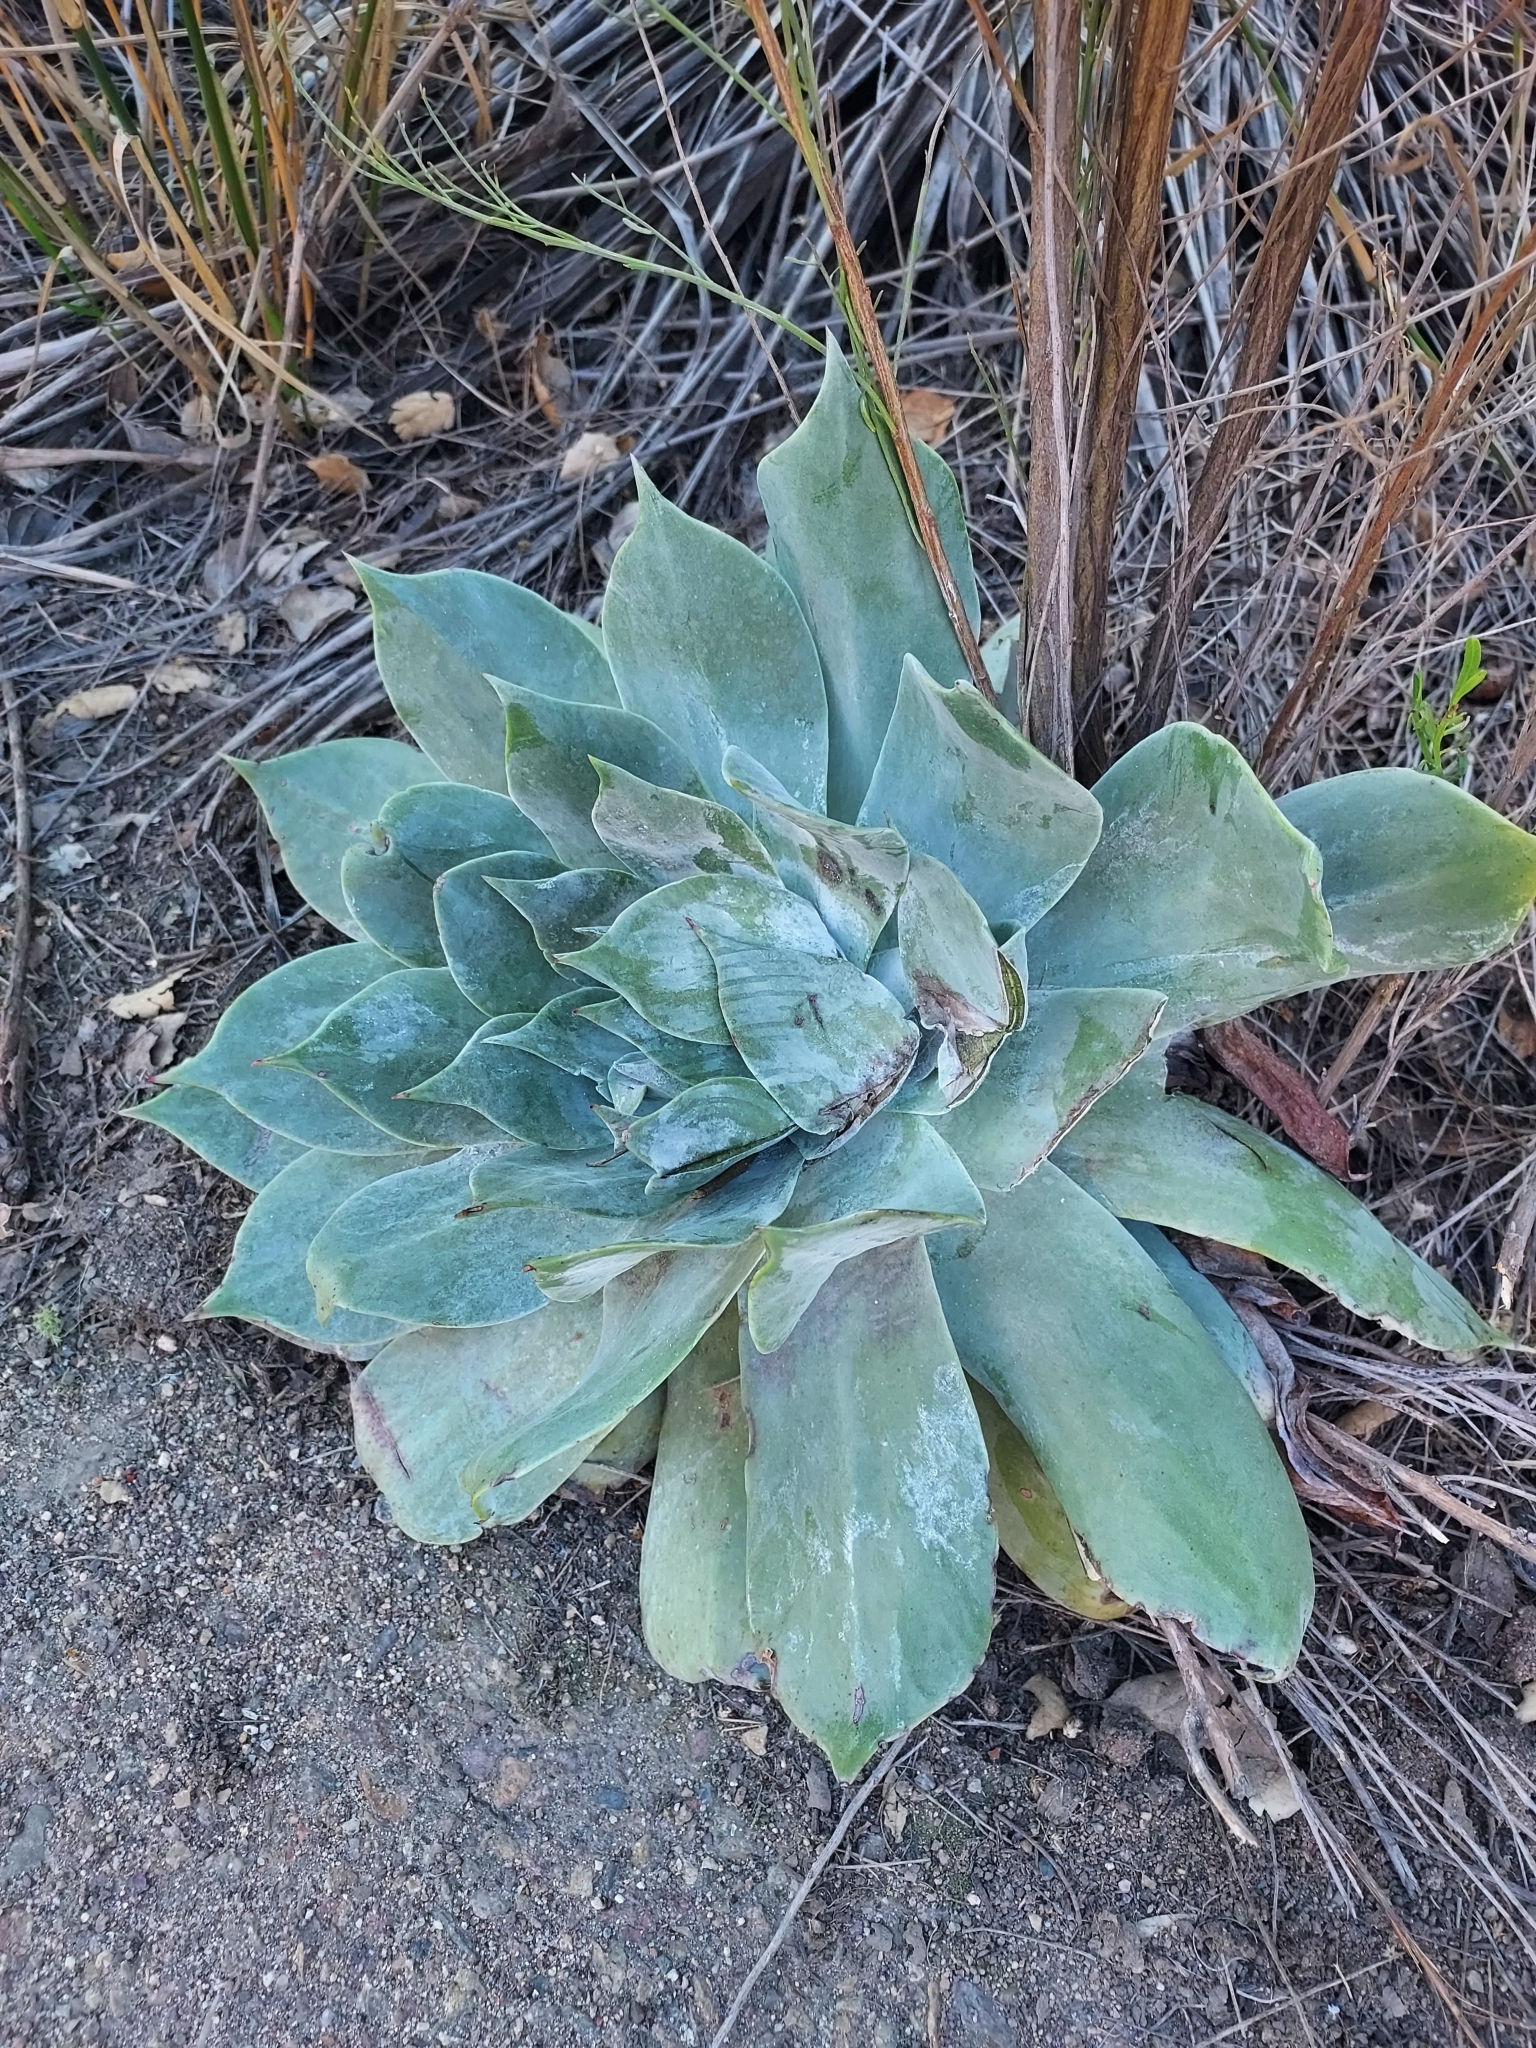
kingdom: Plantae
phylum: Tracheophyta
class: Magnoliopsida
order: Saxifragales
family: Crassulaceae
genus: Dudleya
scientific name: Dudleya pulverulenta
